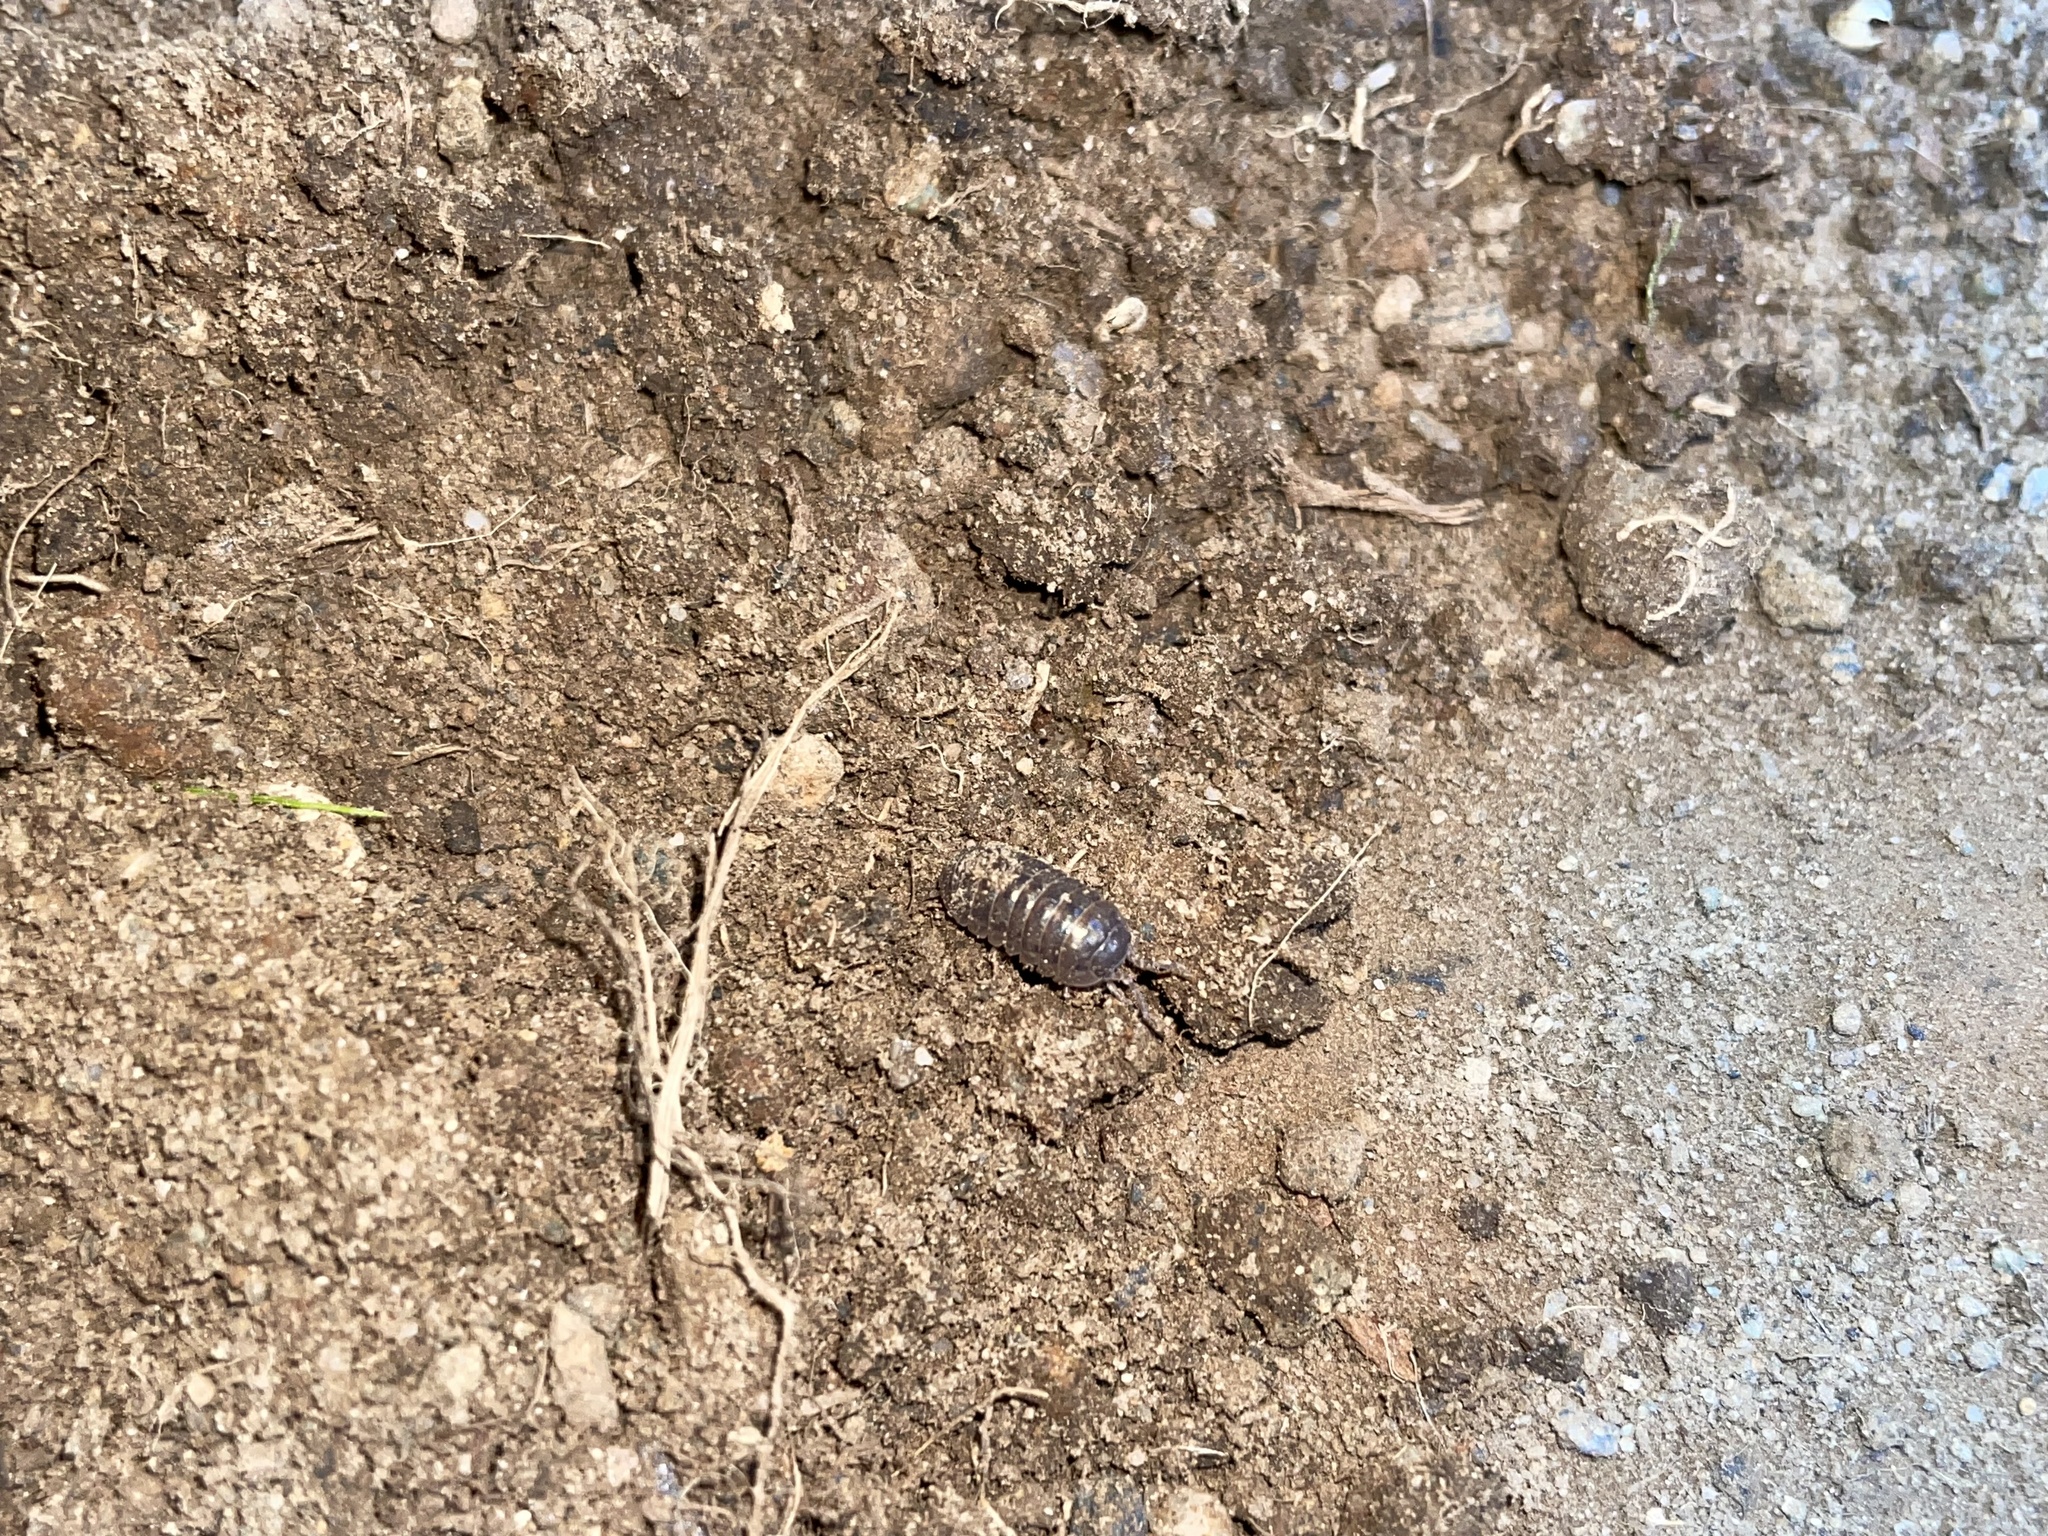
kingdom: Animalia
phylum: Arthropoda
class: Malacostraca
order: Isopoda
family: Armadillidiidae
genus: Armadillidium
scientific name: Armadillidium vulgare
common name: Common pill woodlouse
